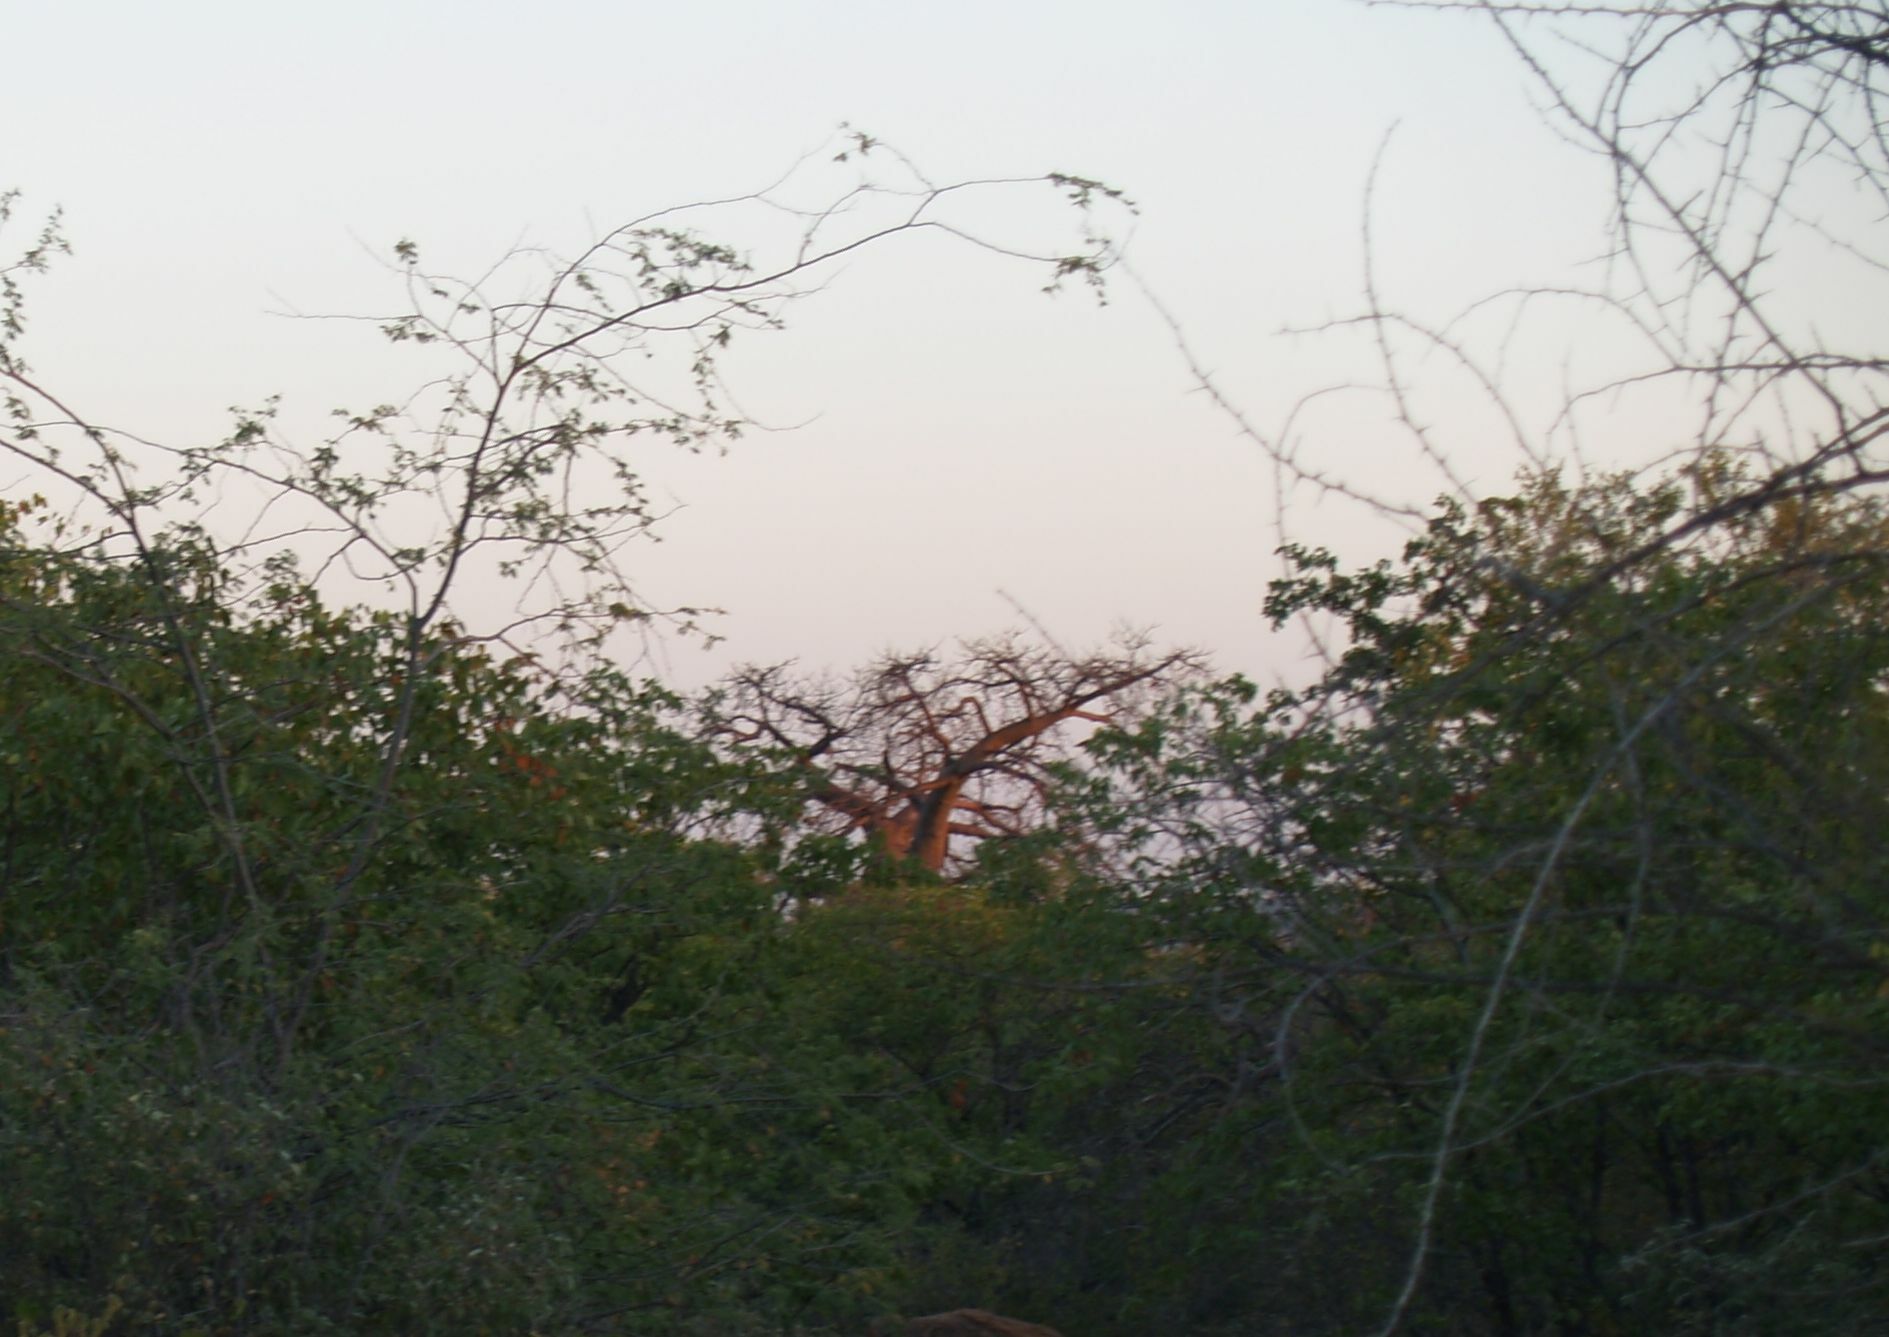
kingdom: Plantae
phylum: Tracheophyta
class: Magnoliopsida
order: Malvales
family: Malvaceae
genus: Adansonia
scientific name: Adansonia digitata
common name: Dead-rat-tree
